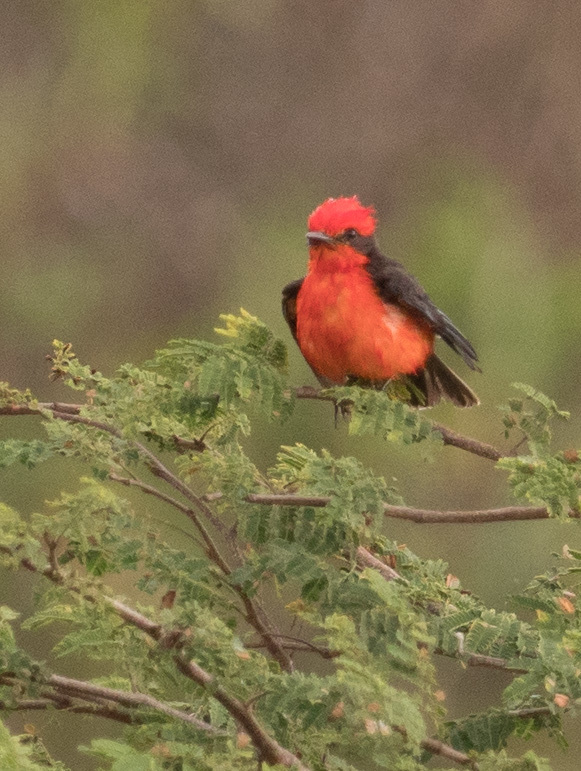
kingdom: Animalia
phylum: Chordata
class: Aves
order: Passeriformes
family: Tyrannidae
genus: Pyrocephalus
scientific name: Pyrocephalus rubinus
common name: Vermilion flycatcher
